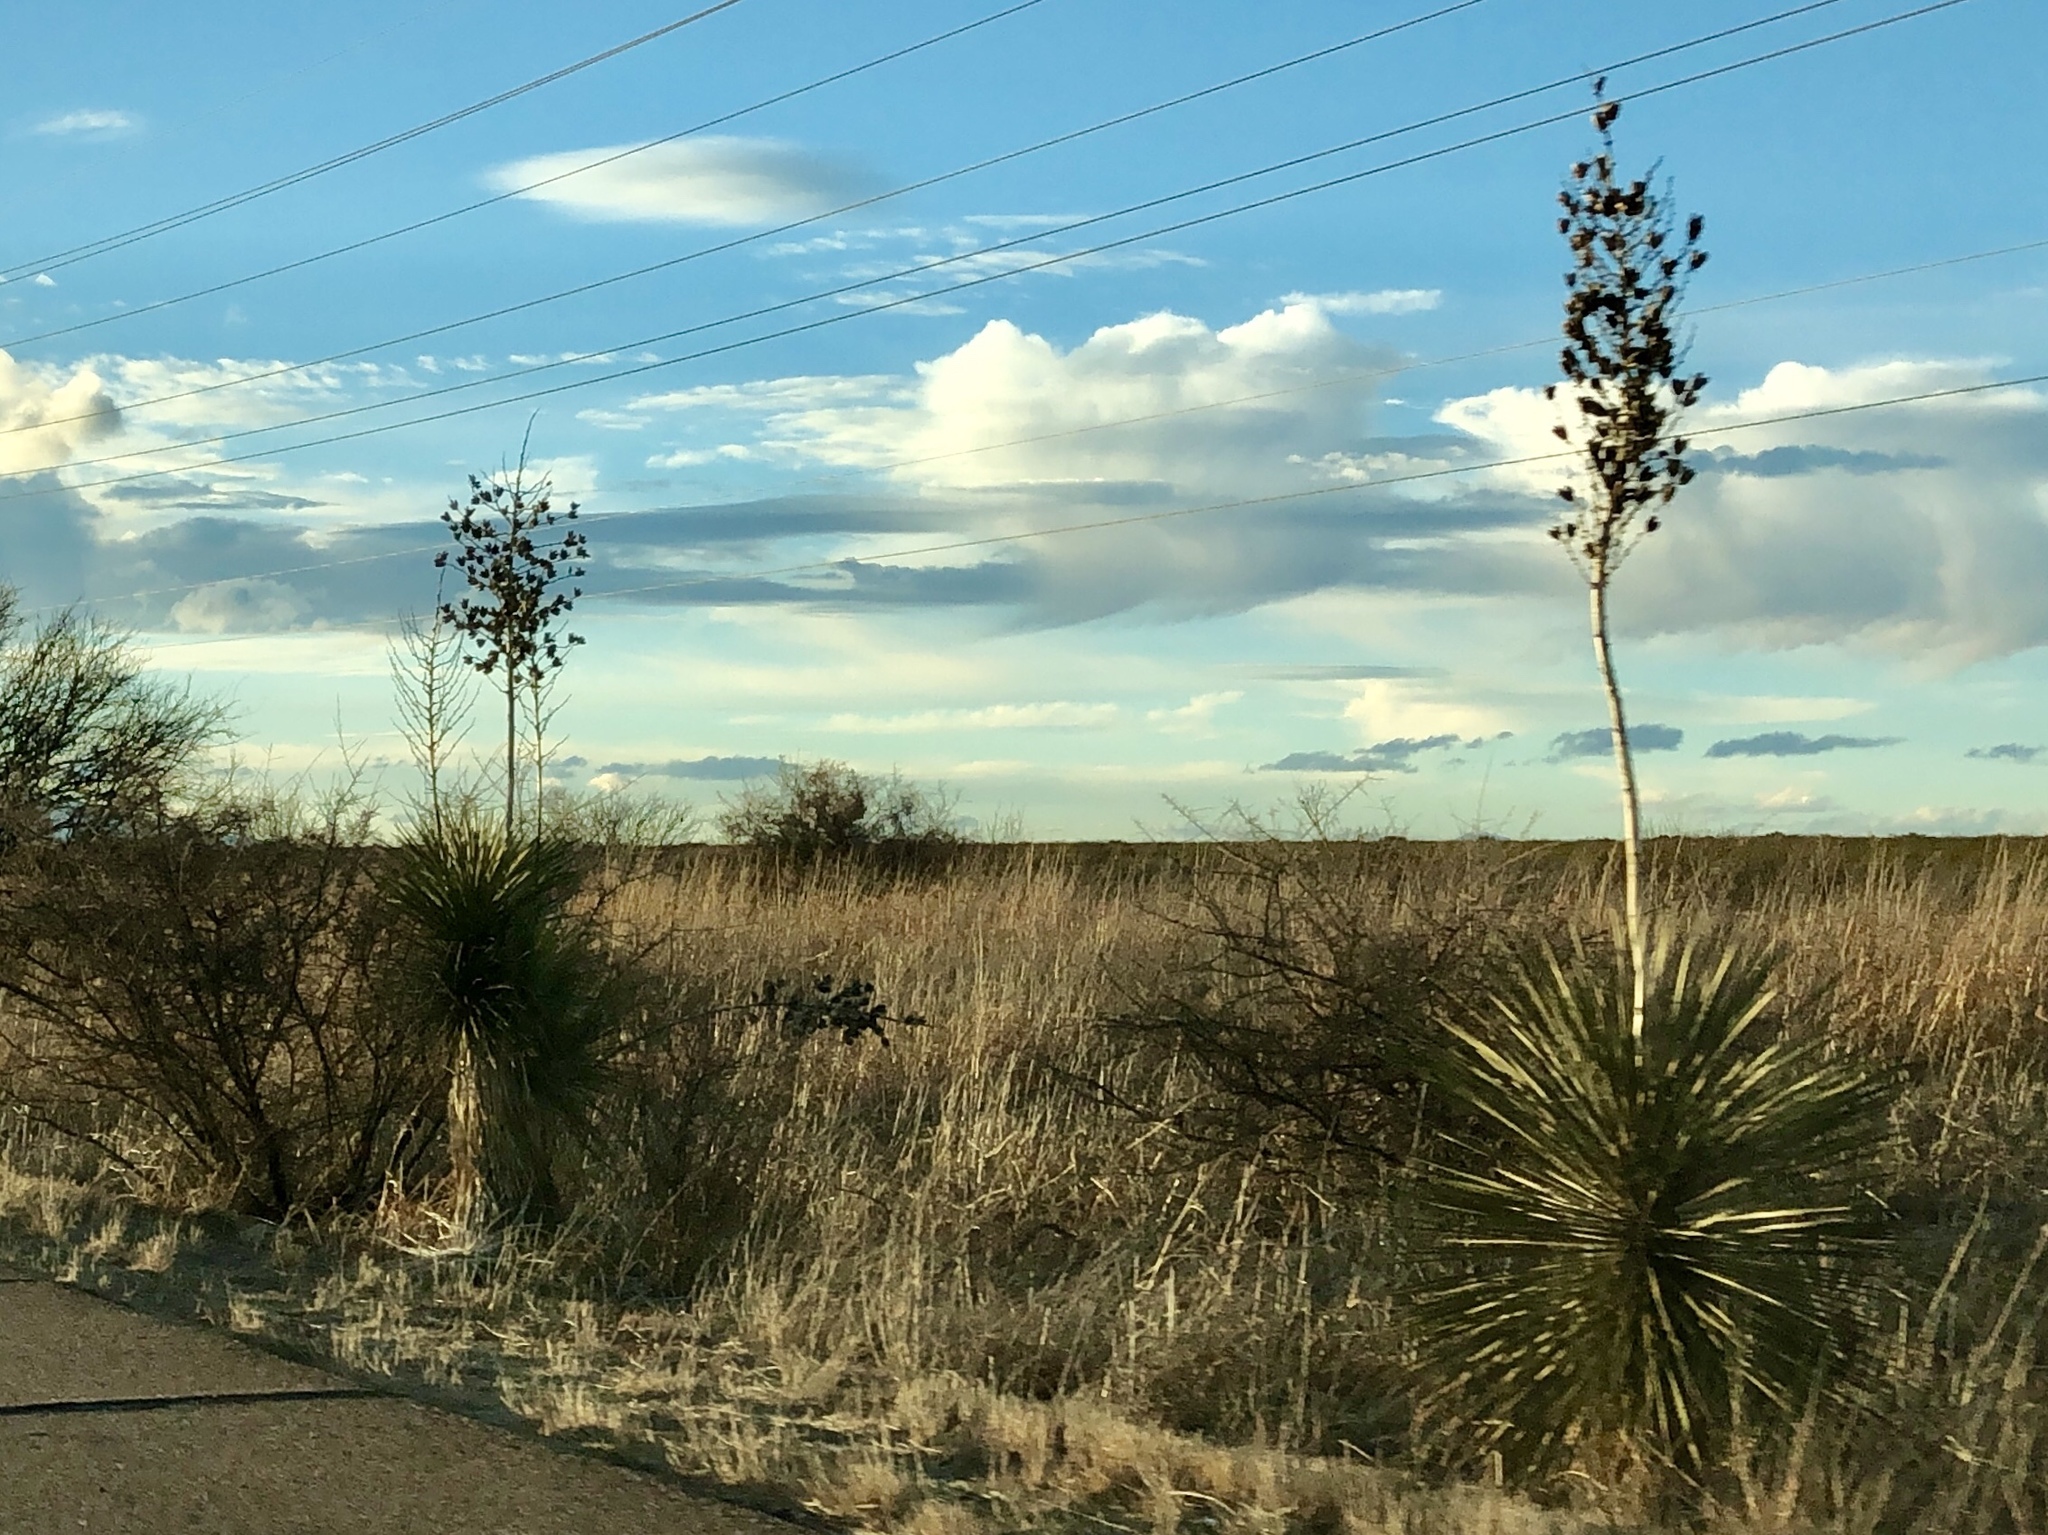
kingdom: Plantae
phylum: Tracheophyta
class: Liliopsida
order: Asparagales
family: Asparagaceae
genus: Yucca
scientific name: Yucca elata
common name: Palmella
